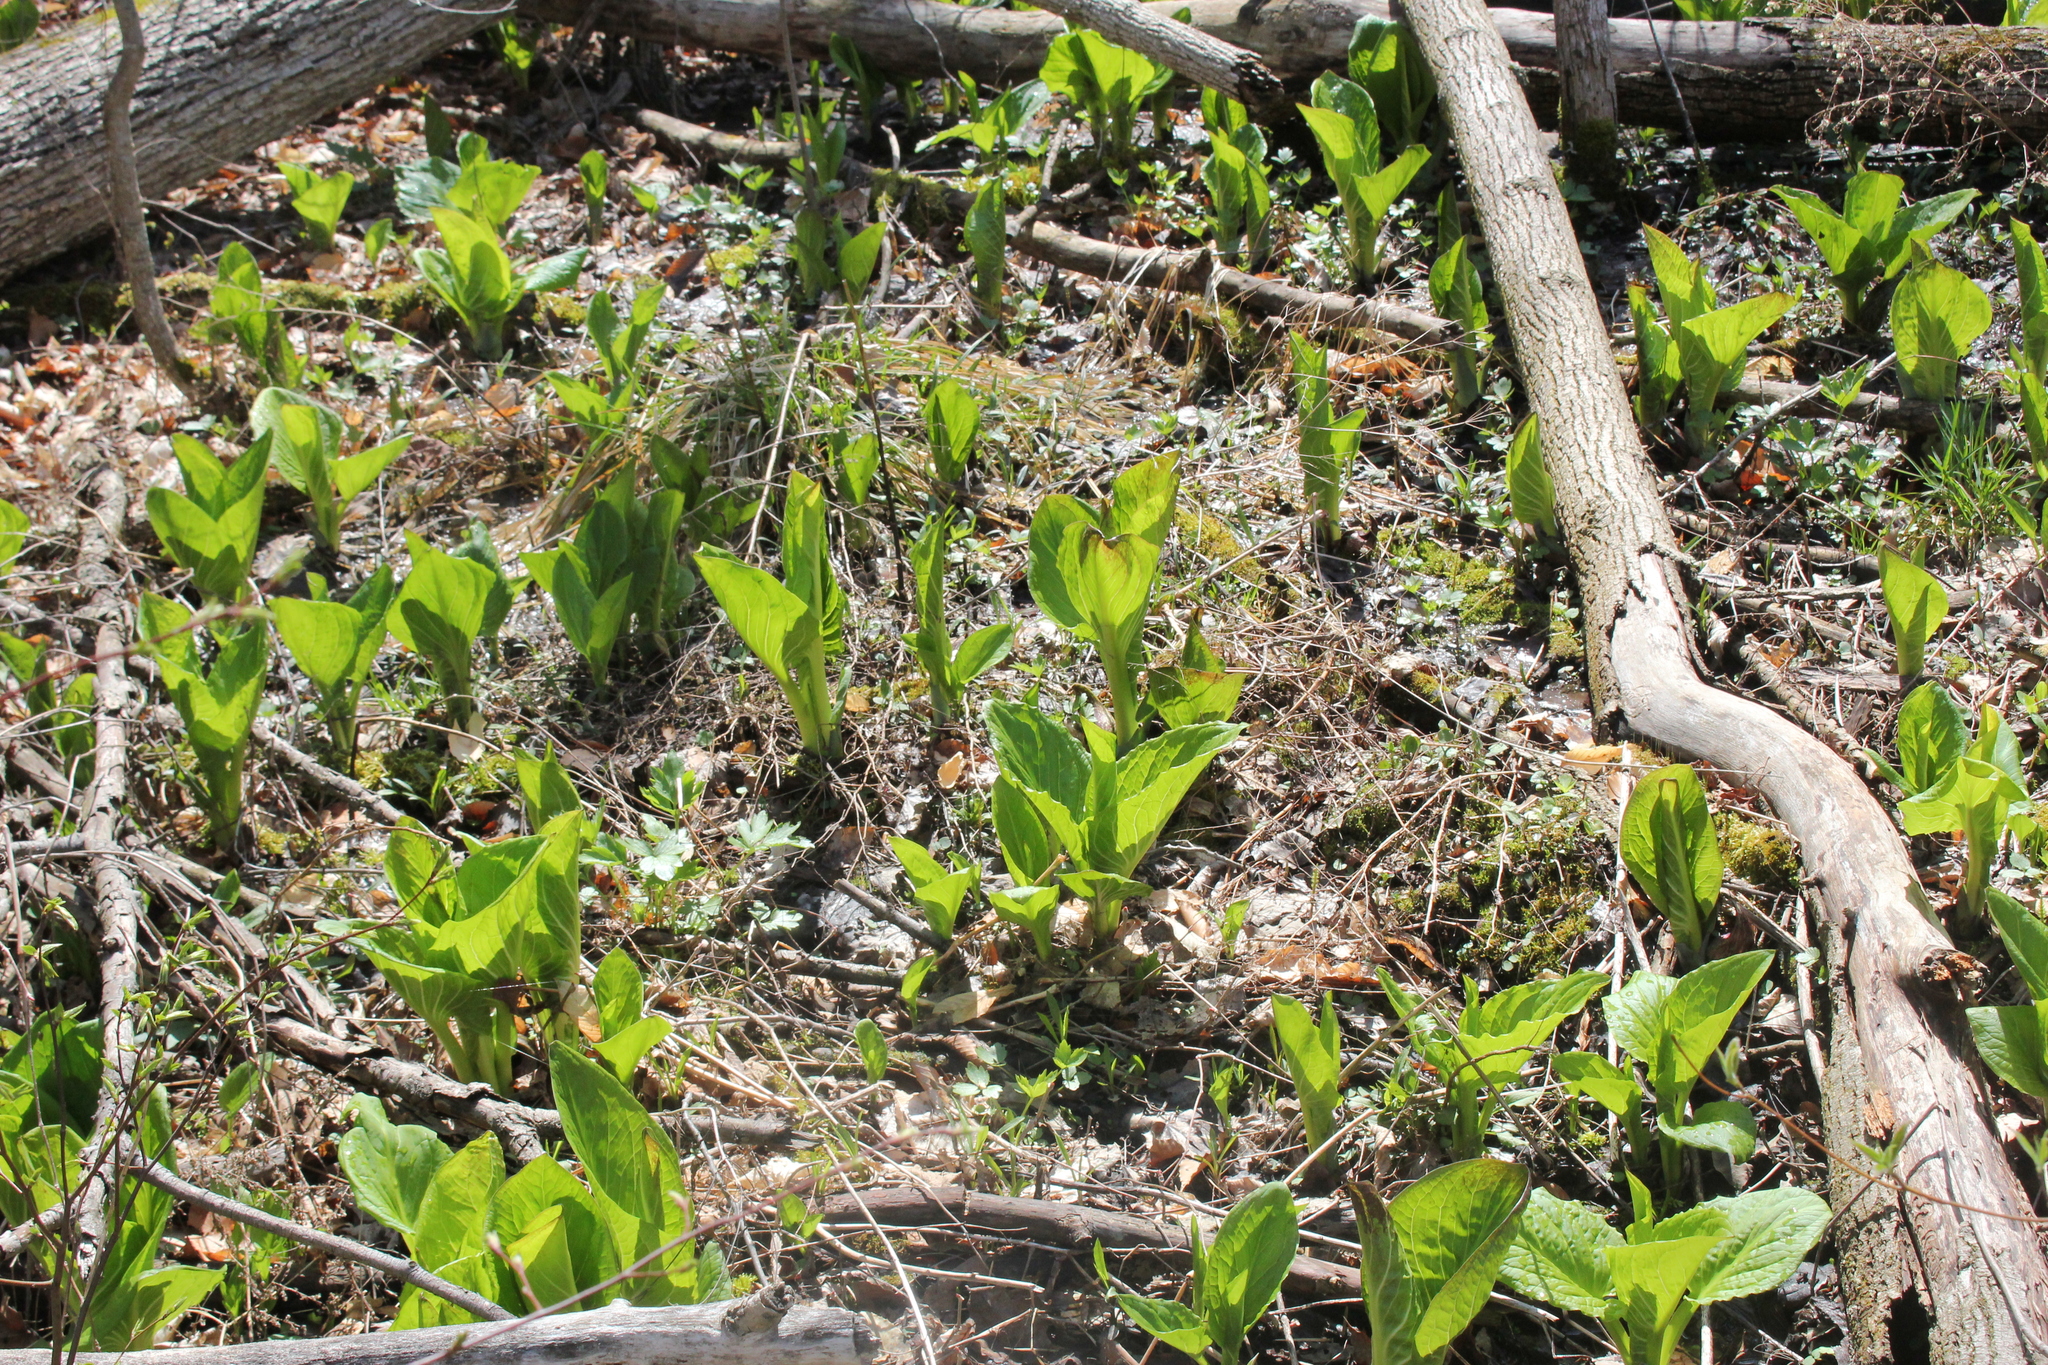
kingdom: Plantae
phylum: Tracheophyta
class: Liliopsida
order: Alismatales
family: Araceae
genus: Symplocarpus
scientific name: Symplocarpus foetidus
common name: Eastern skunk cabbage
